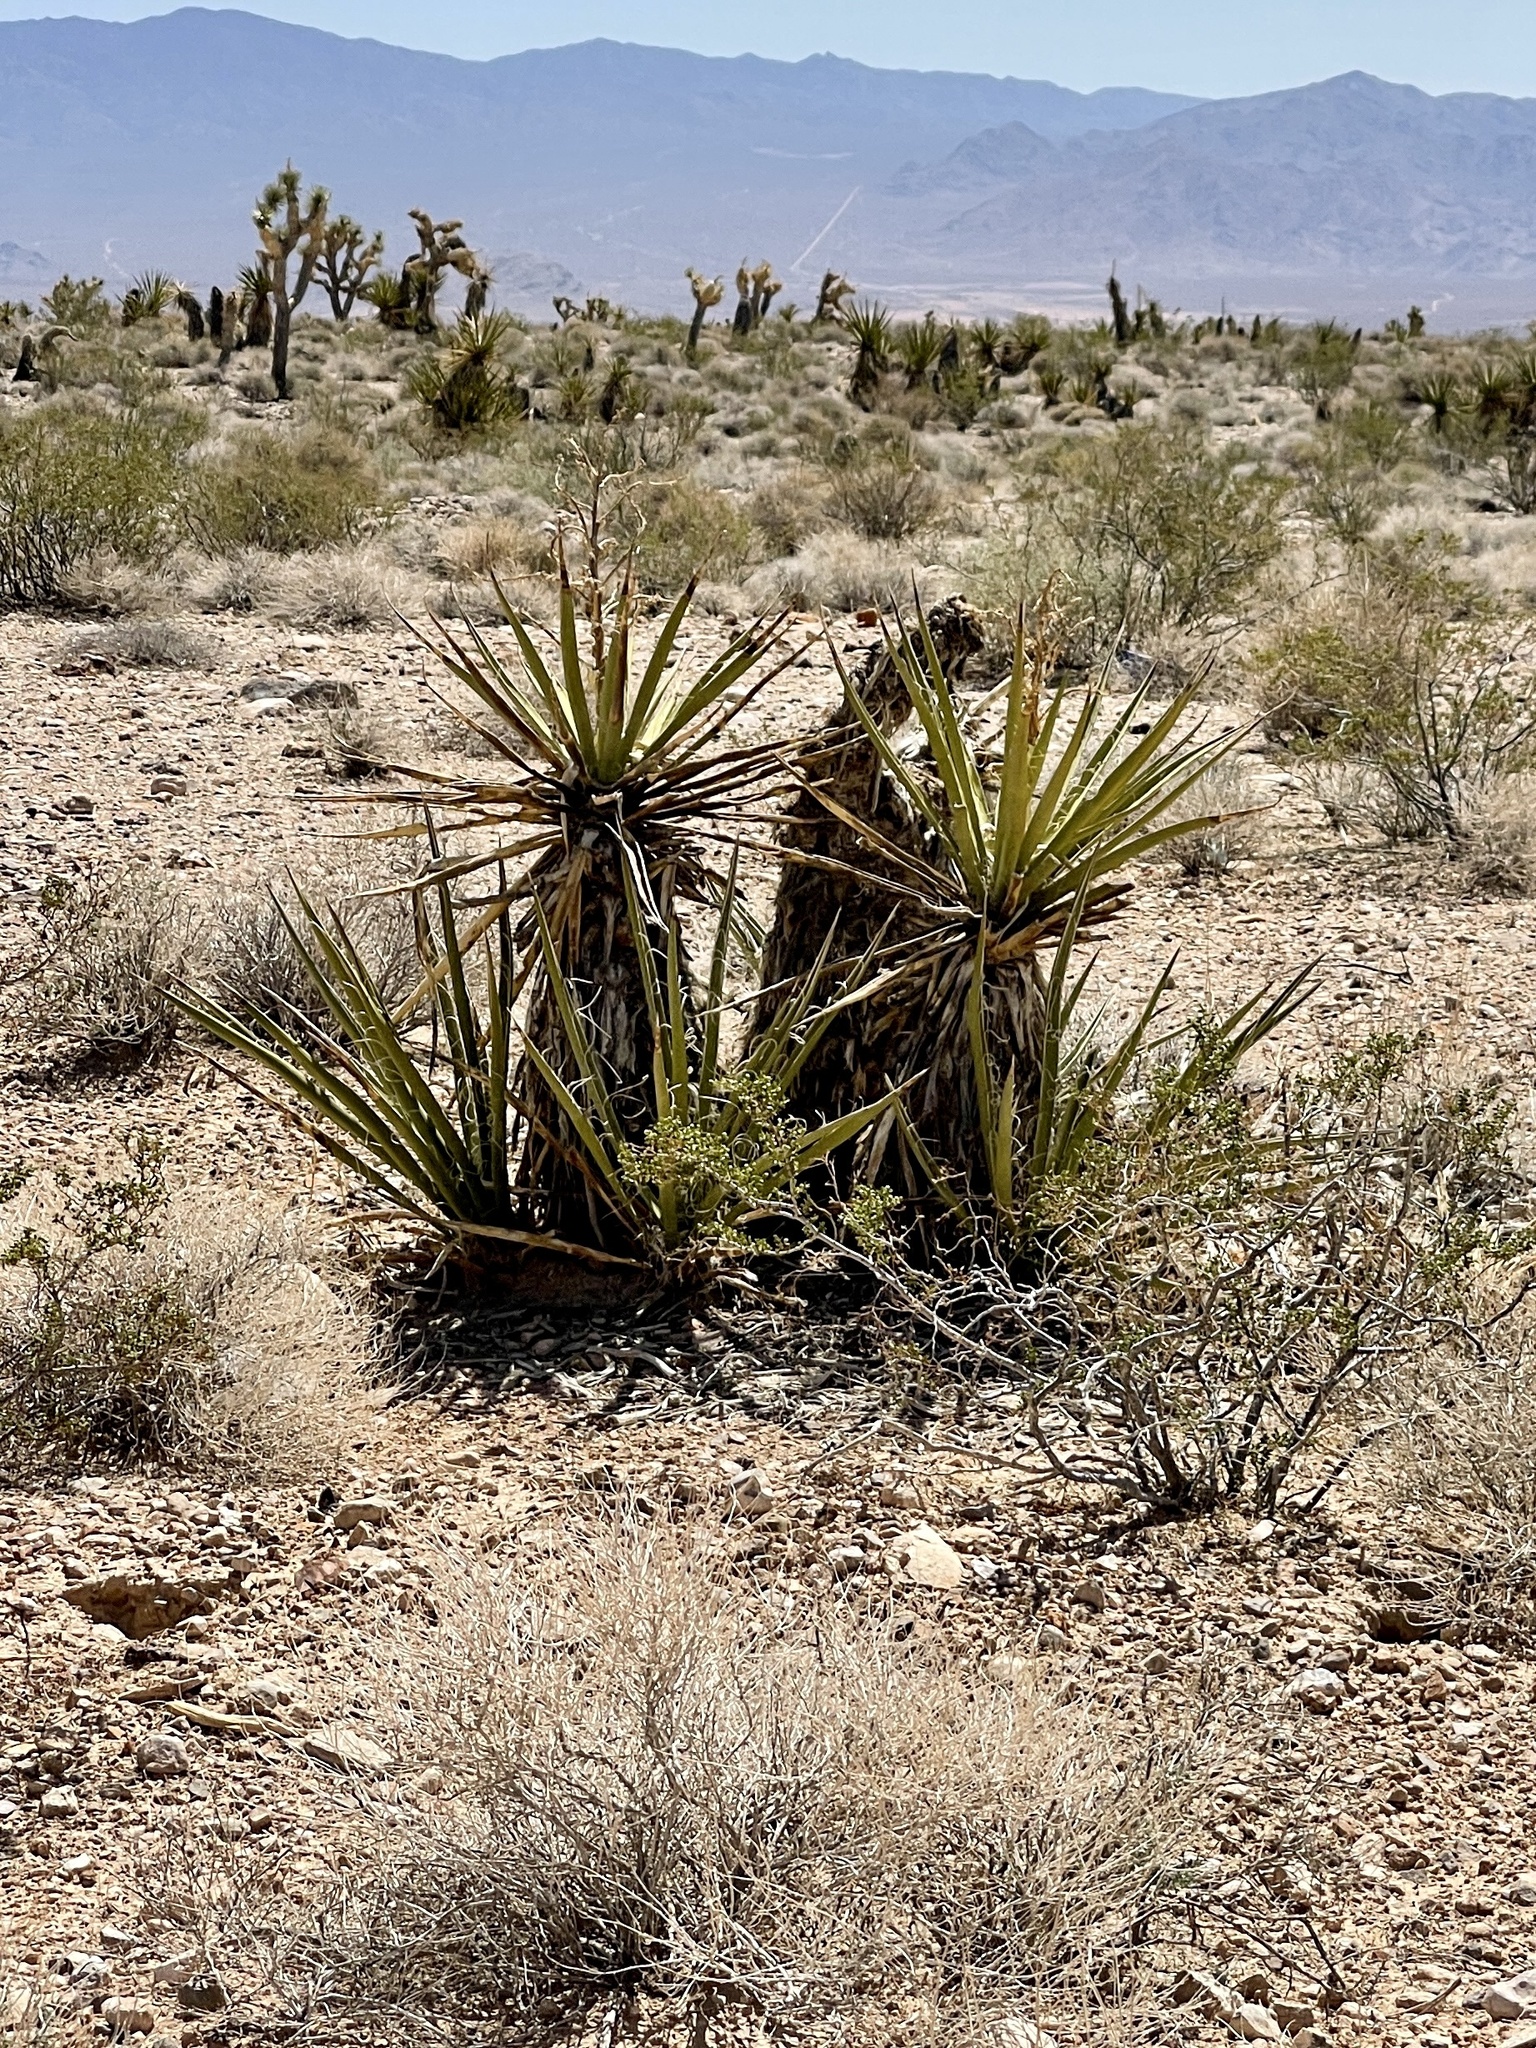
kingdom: Plantae
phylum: Tracheophyta
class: Liliopsida
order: Asparagales
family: Asparagaceae
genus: Yucca
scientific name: Yucca schidigera
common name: Mojave yucca
